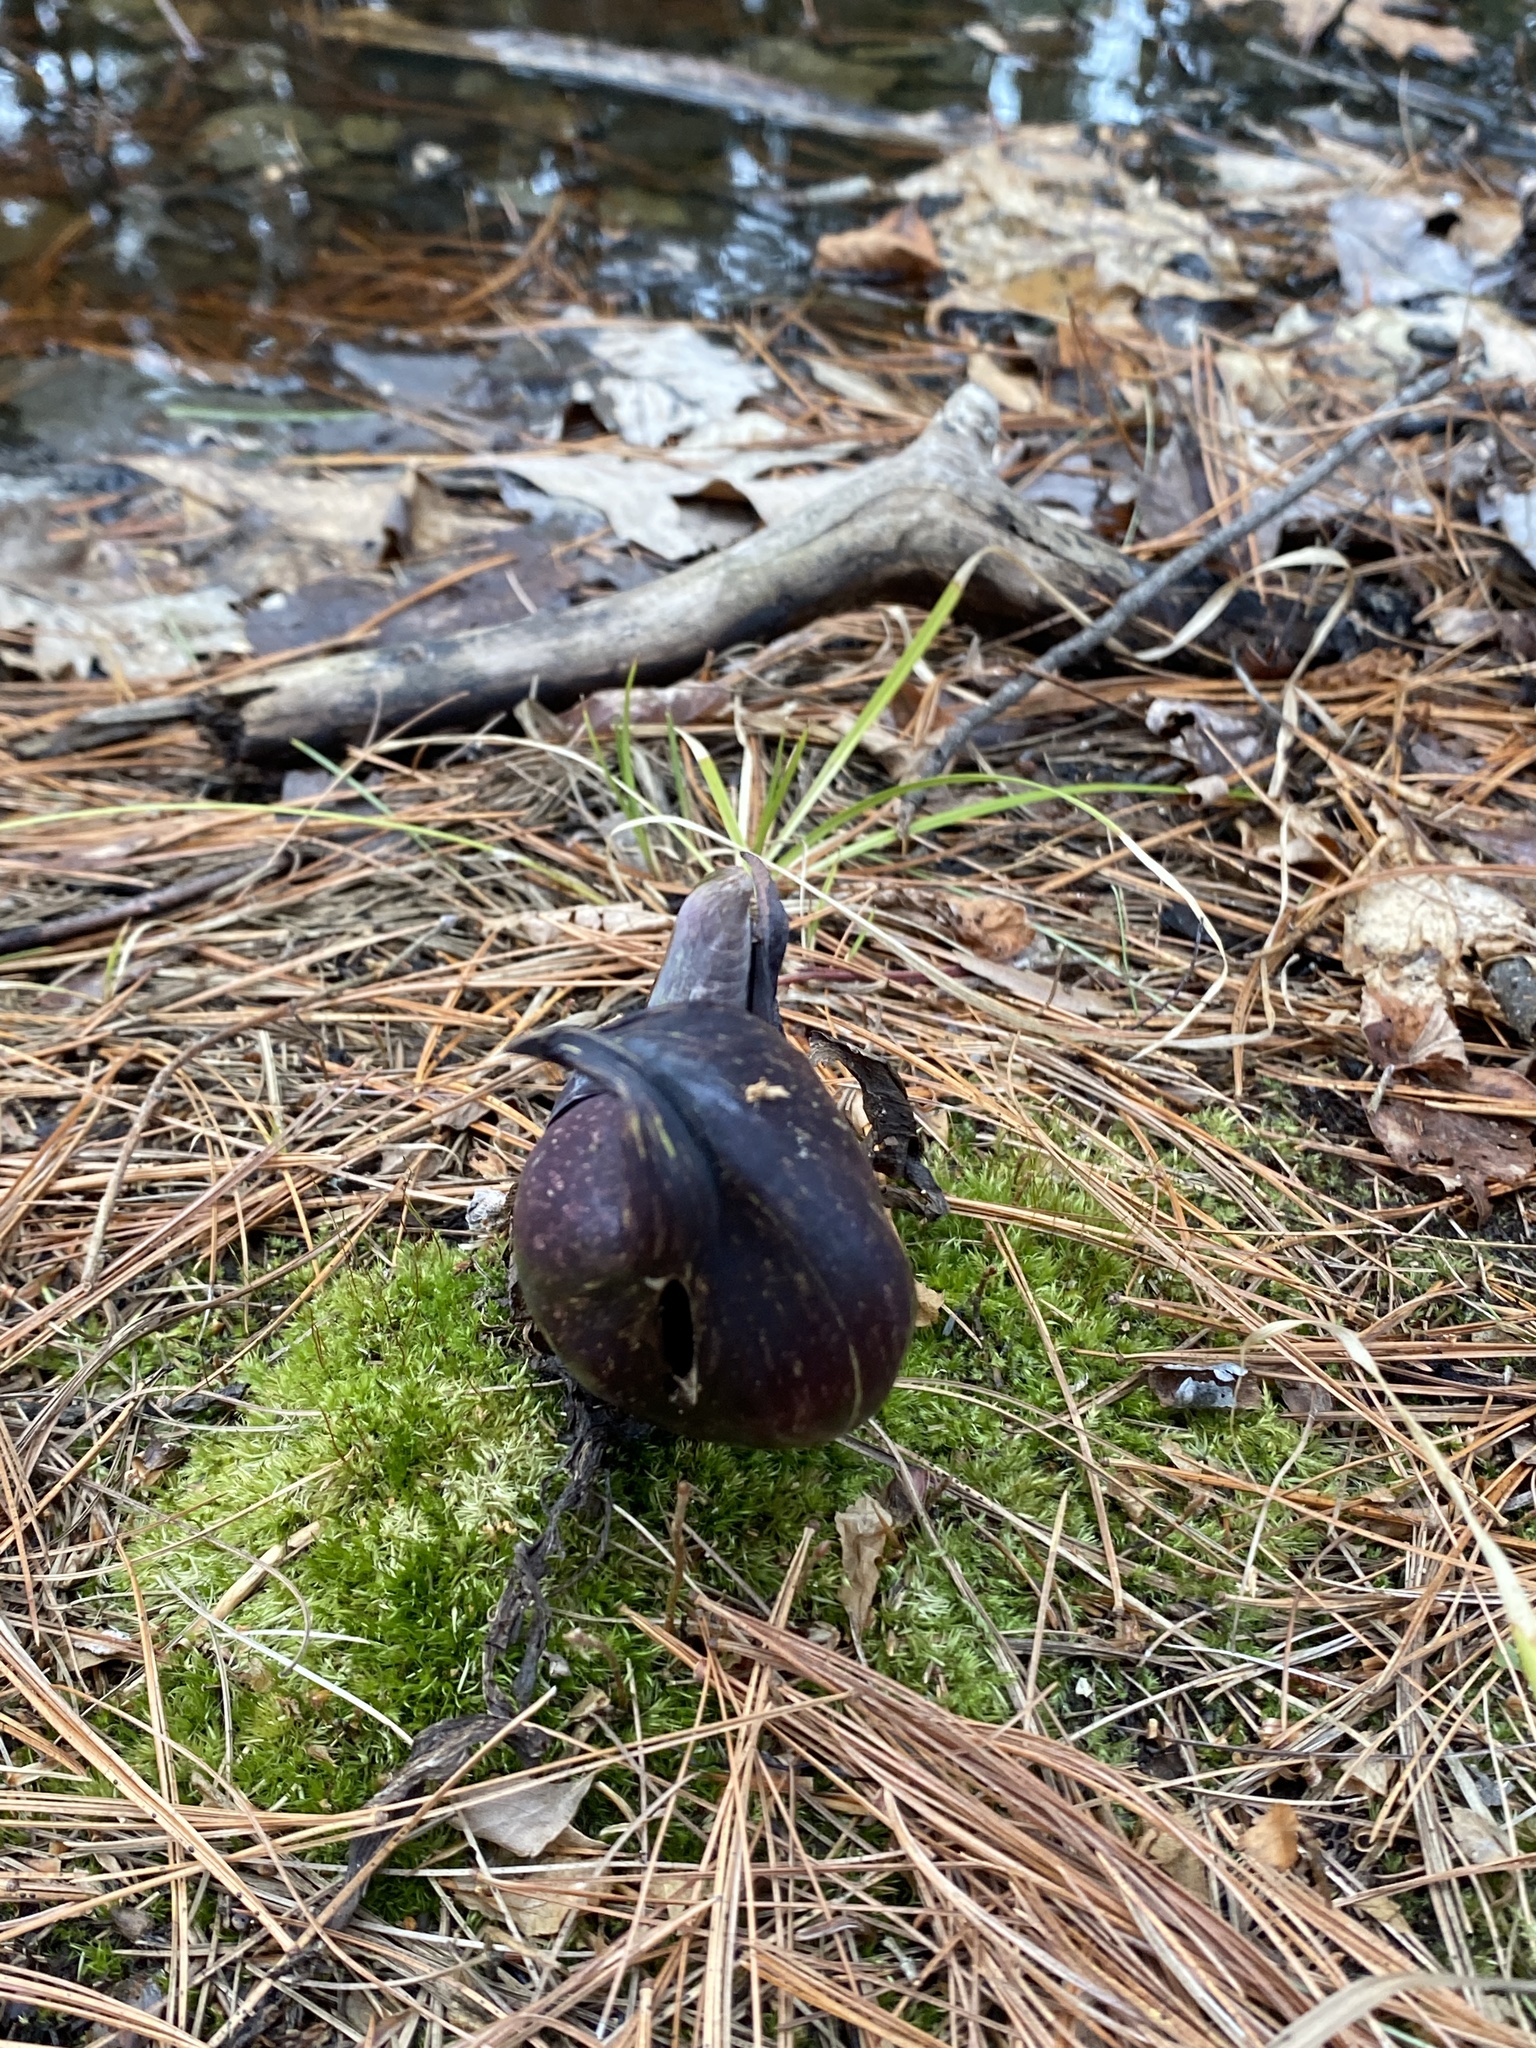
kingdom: Plantae
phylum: Tracheophyta
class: Liliopsida
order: Alismatales
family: Araceae
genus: Symplocarpus
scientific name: Symplocarpus foetidus
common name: Eastern skunk cabbage
